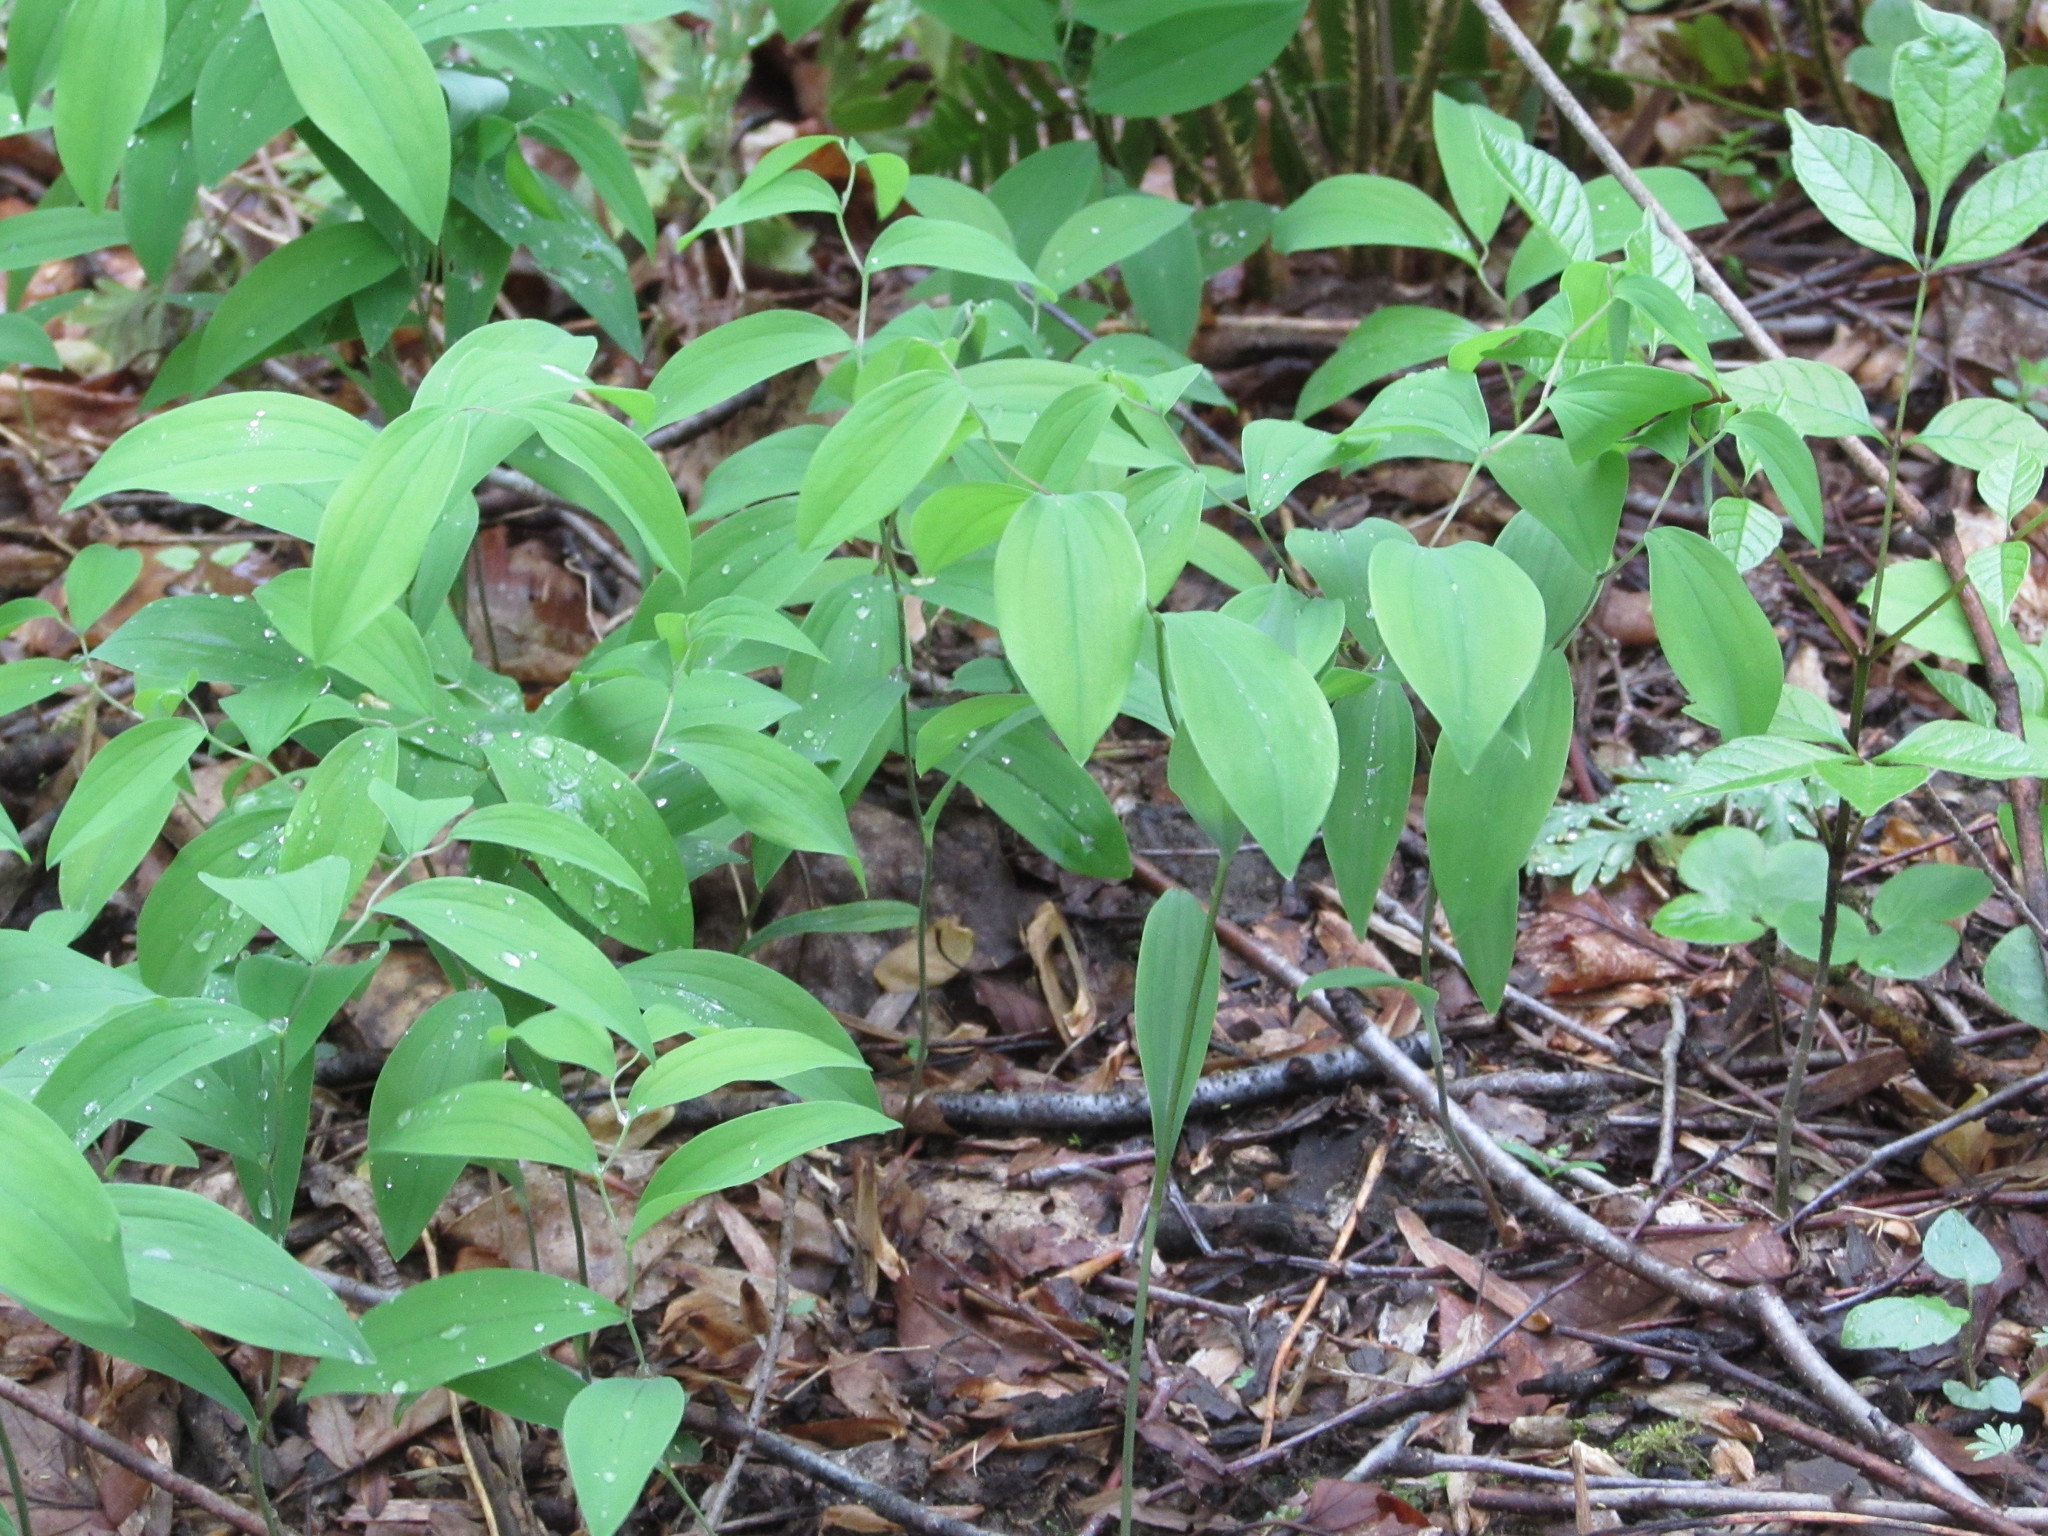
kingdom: Plantae
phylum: Tracheophyta
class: Liliopsida
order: Liliales
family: Colchicaceae
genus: Uvularia
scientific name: Uvularia sessilifolia
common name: Straw-lily
